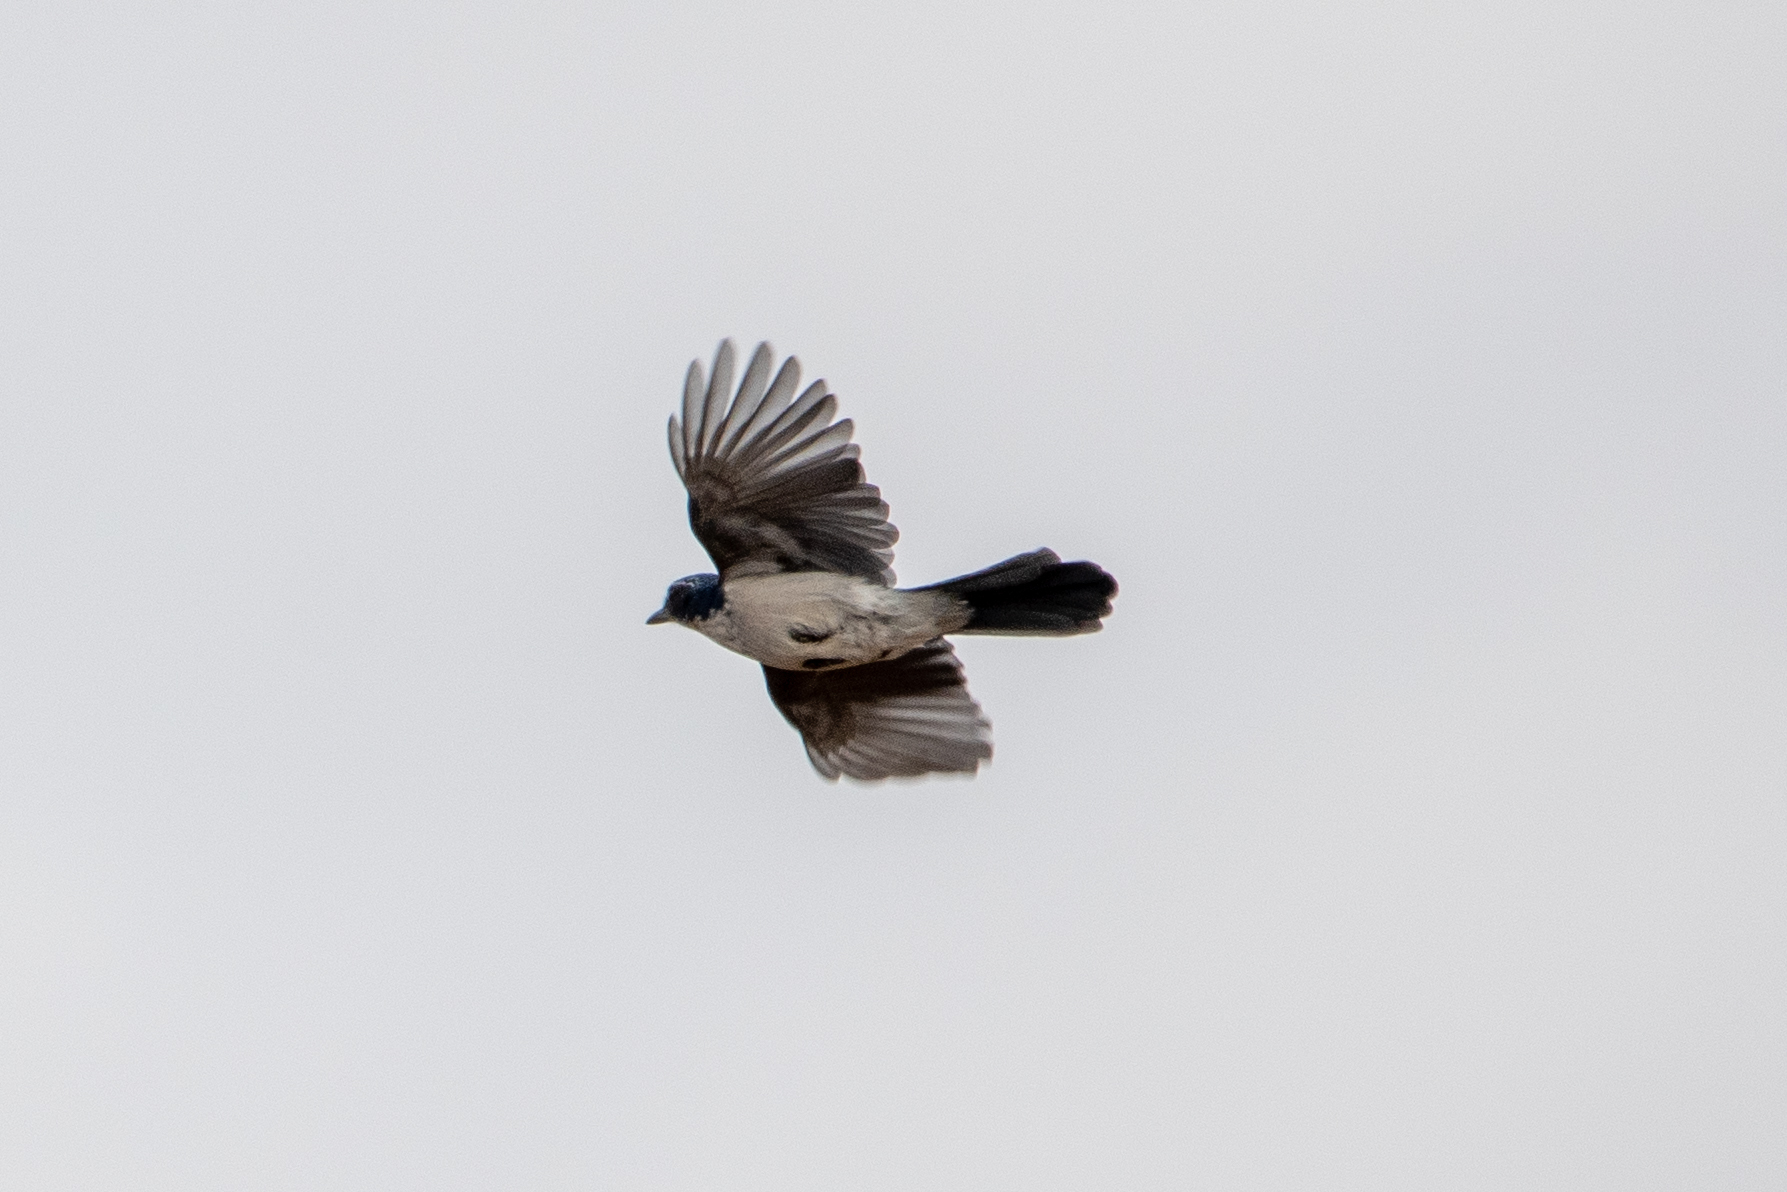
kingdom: Animalia
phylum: Chordata
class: Aves
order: Passeriformes
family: Corvidae
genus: Aphelocoma
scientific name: Aphelocoma californica
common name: California scrub-jay
